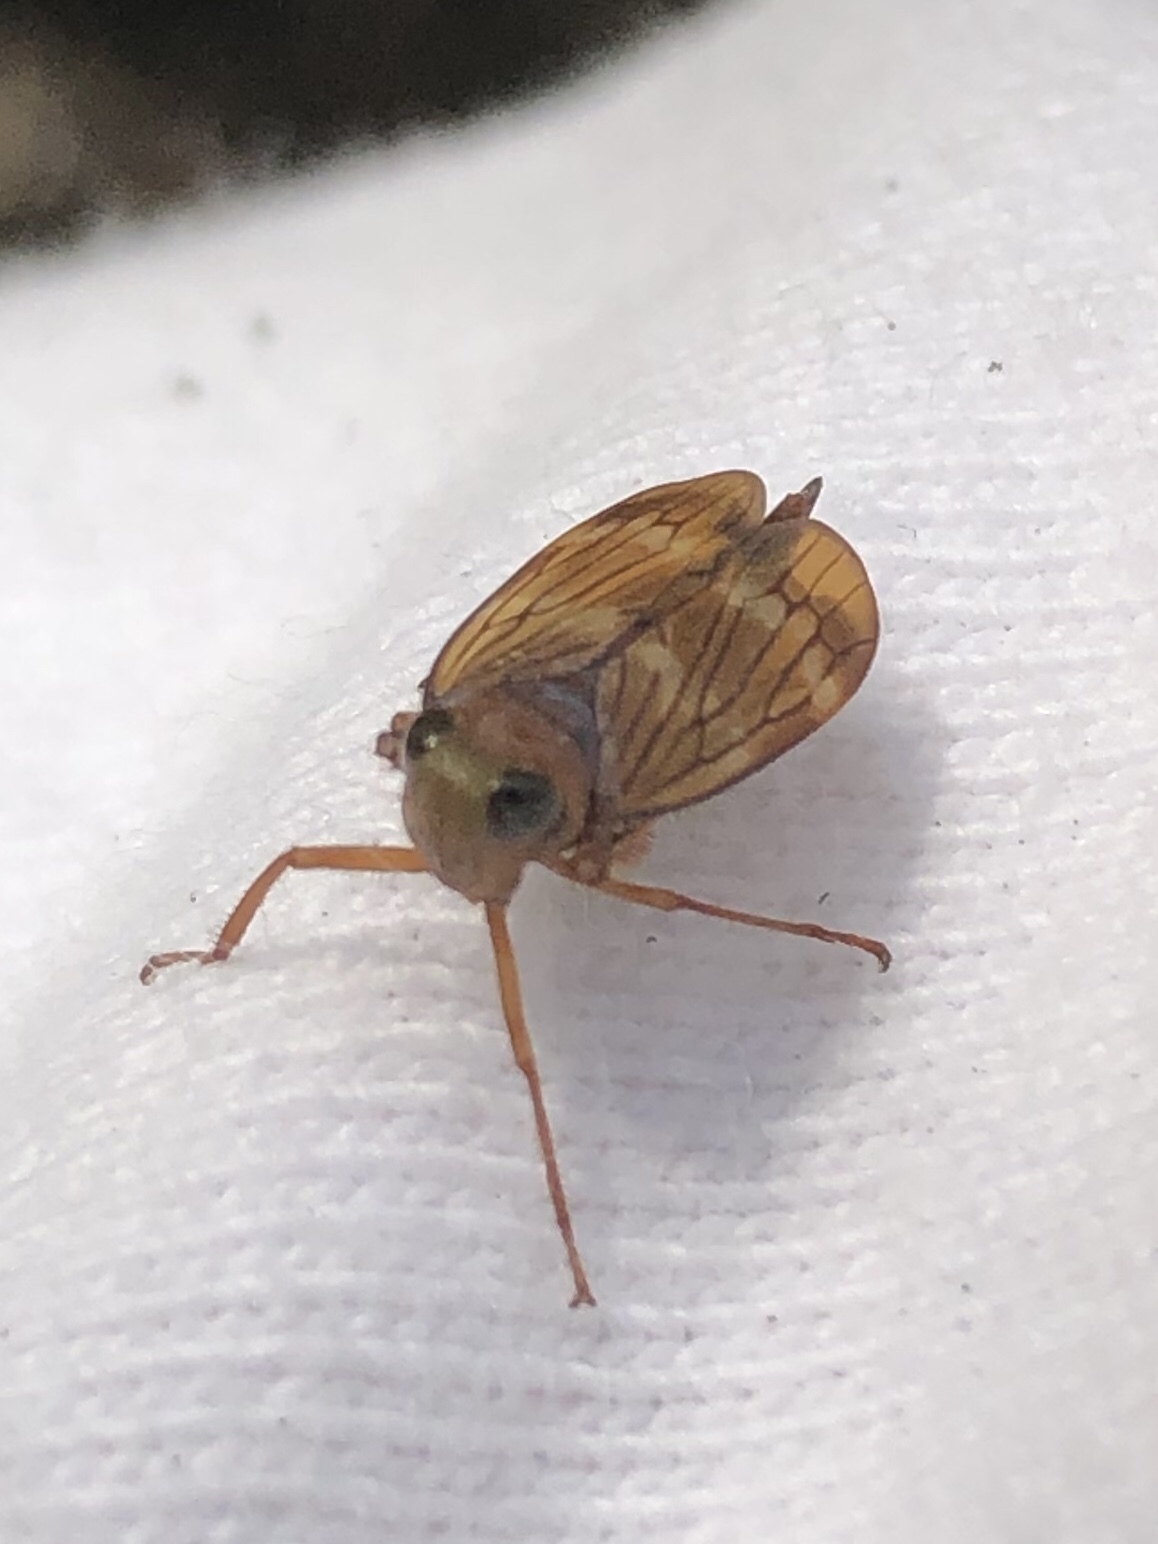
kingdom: Animalia
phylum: Arthropoda
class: Insecta
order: Hemiptera
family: Cicadellidae
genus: Jikradia
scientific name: Jikradia olitoria
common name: Coppery leafhopper
